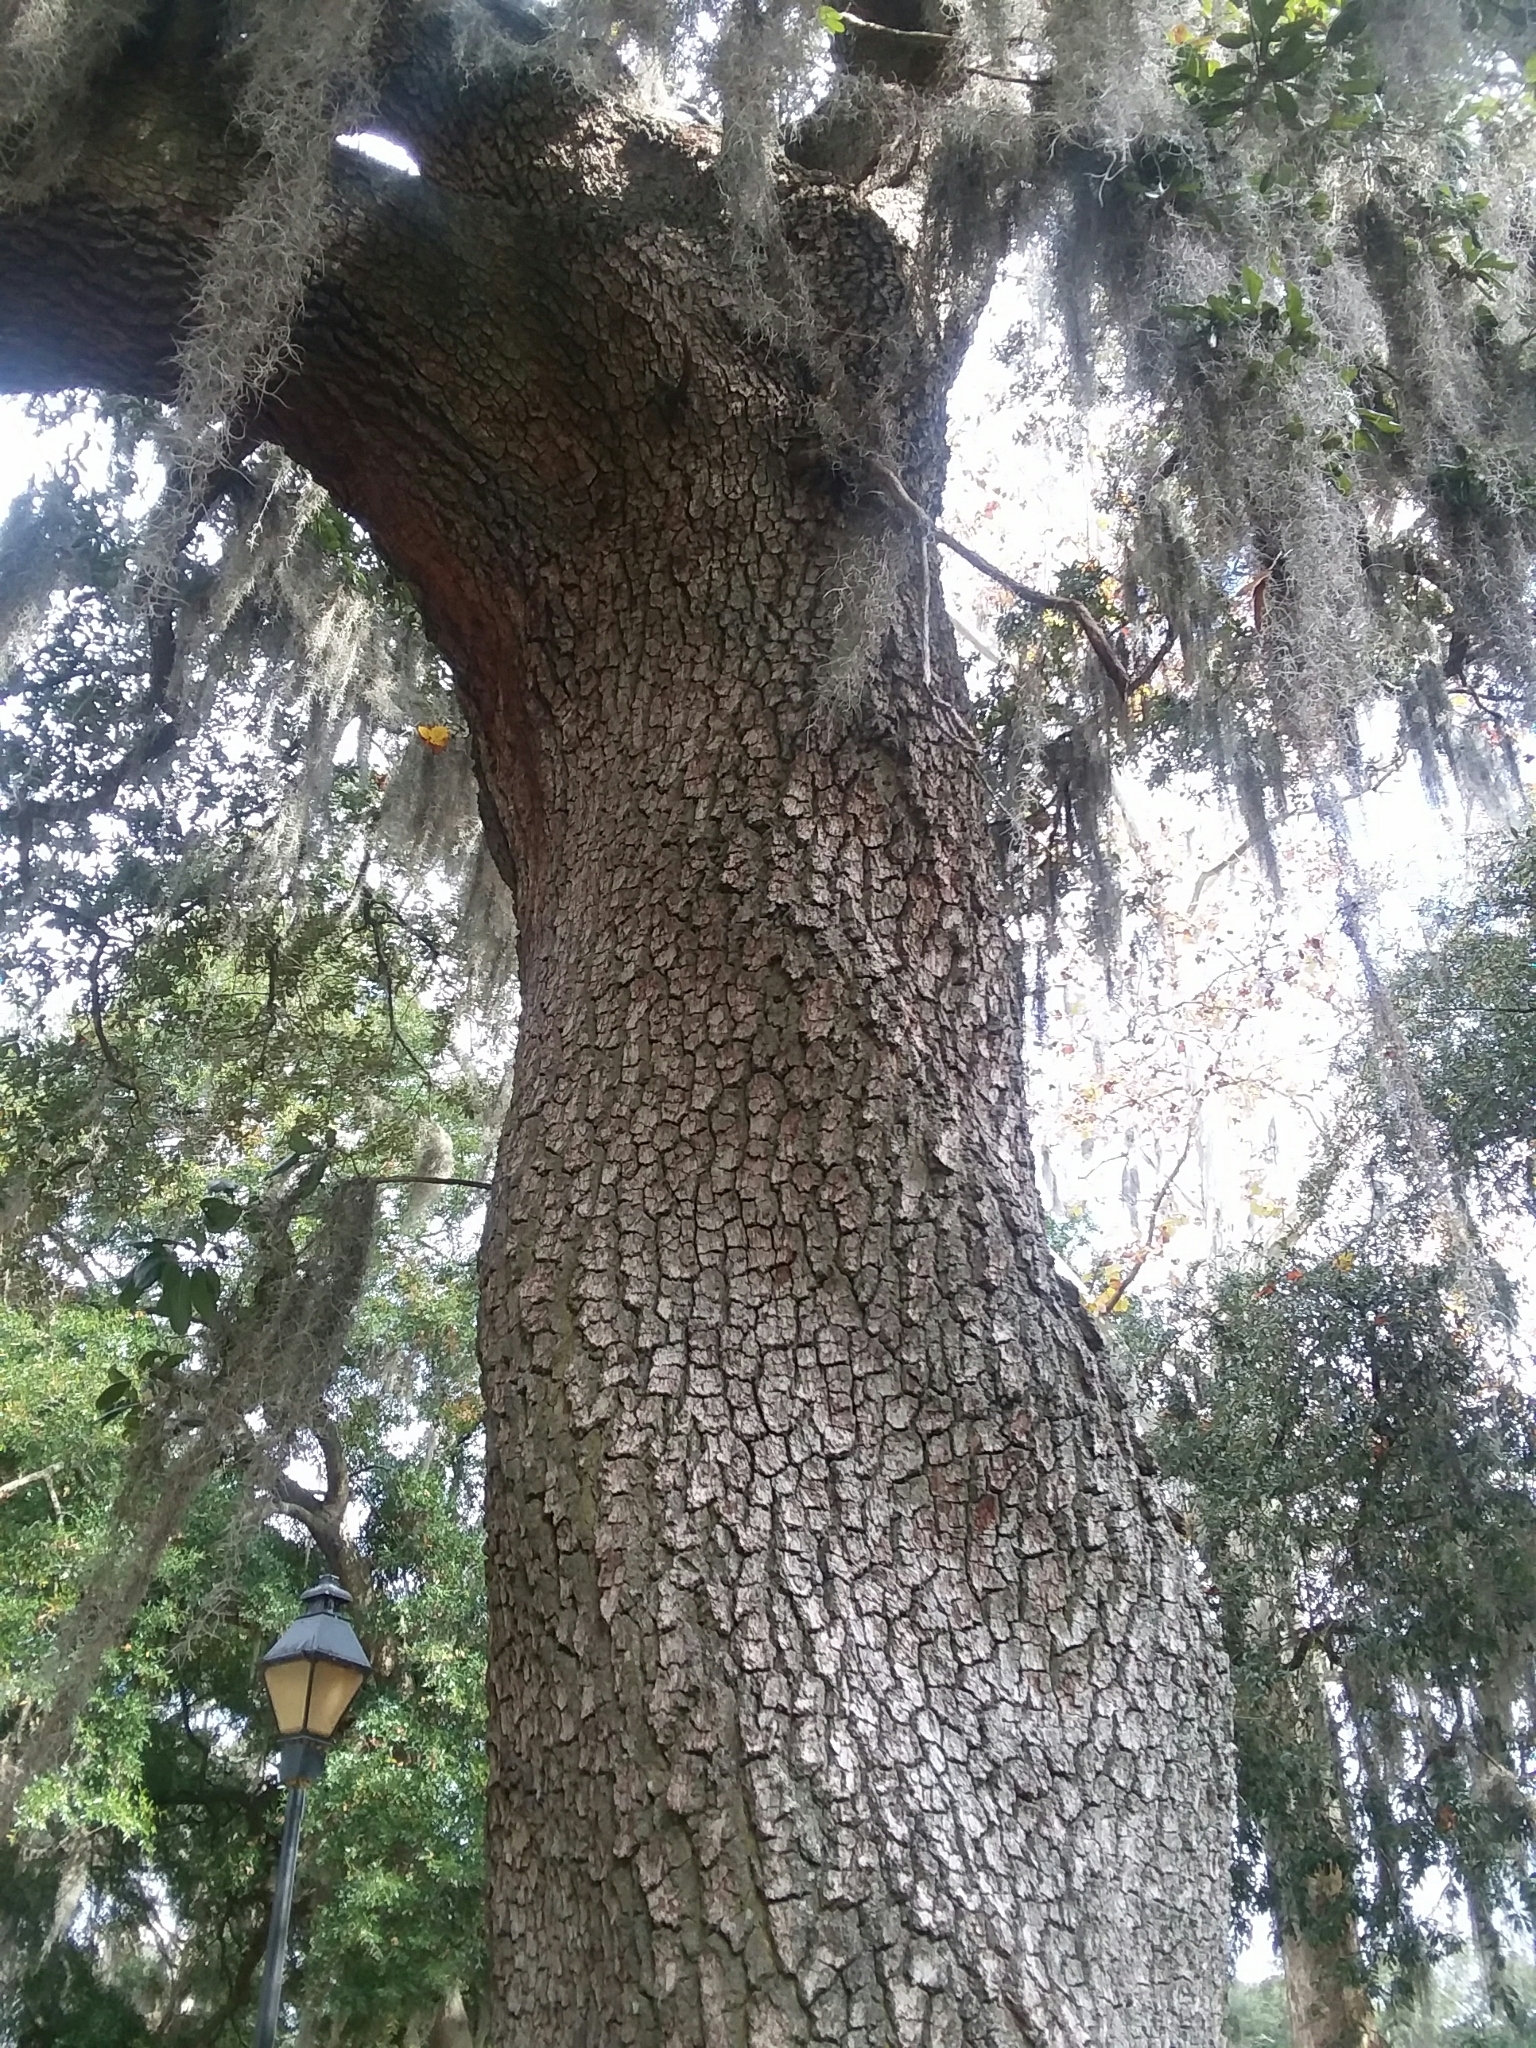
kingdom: Plantae
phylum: Tracheophyta
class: Magnoliopsida
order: Fagales
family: Fagaceae
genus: Quercus
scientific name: Quercus virginiana
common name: Southern live oak
